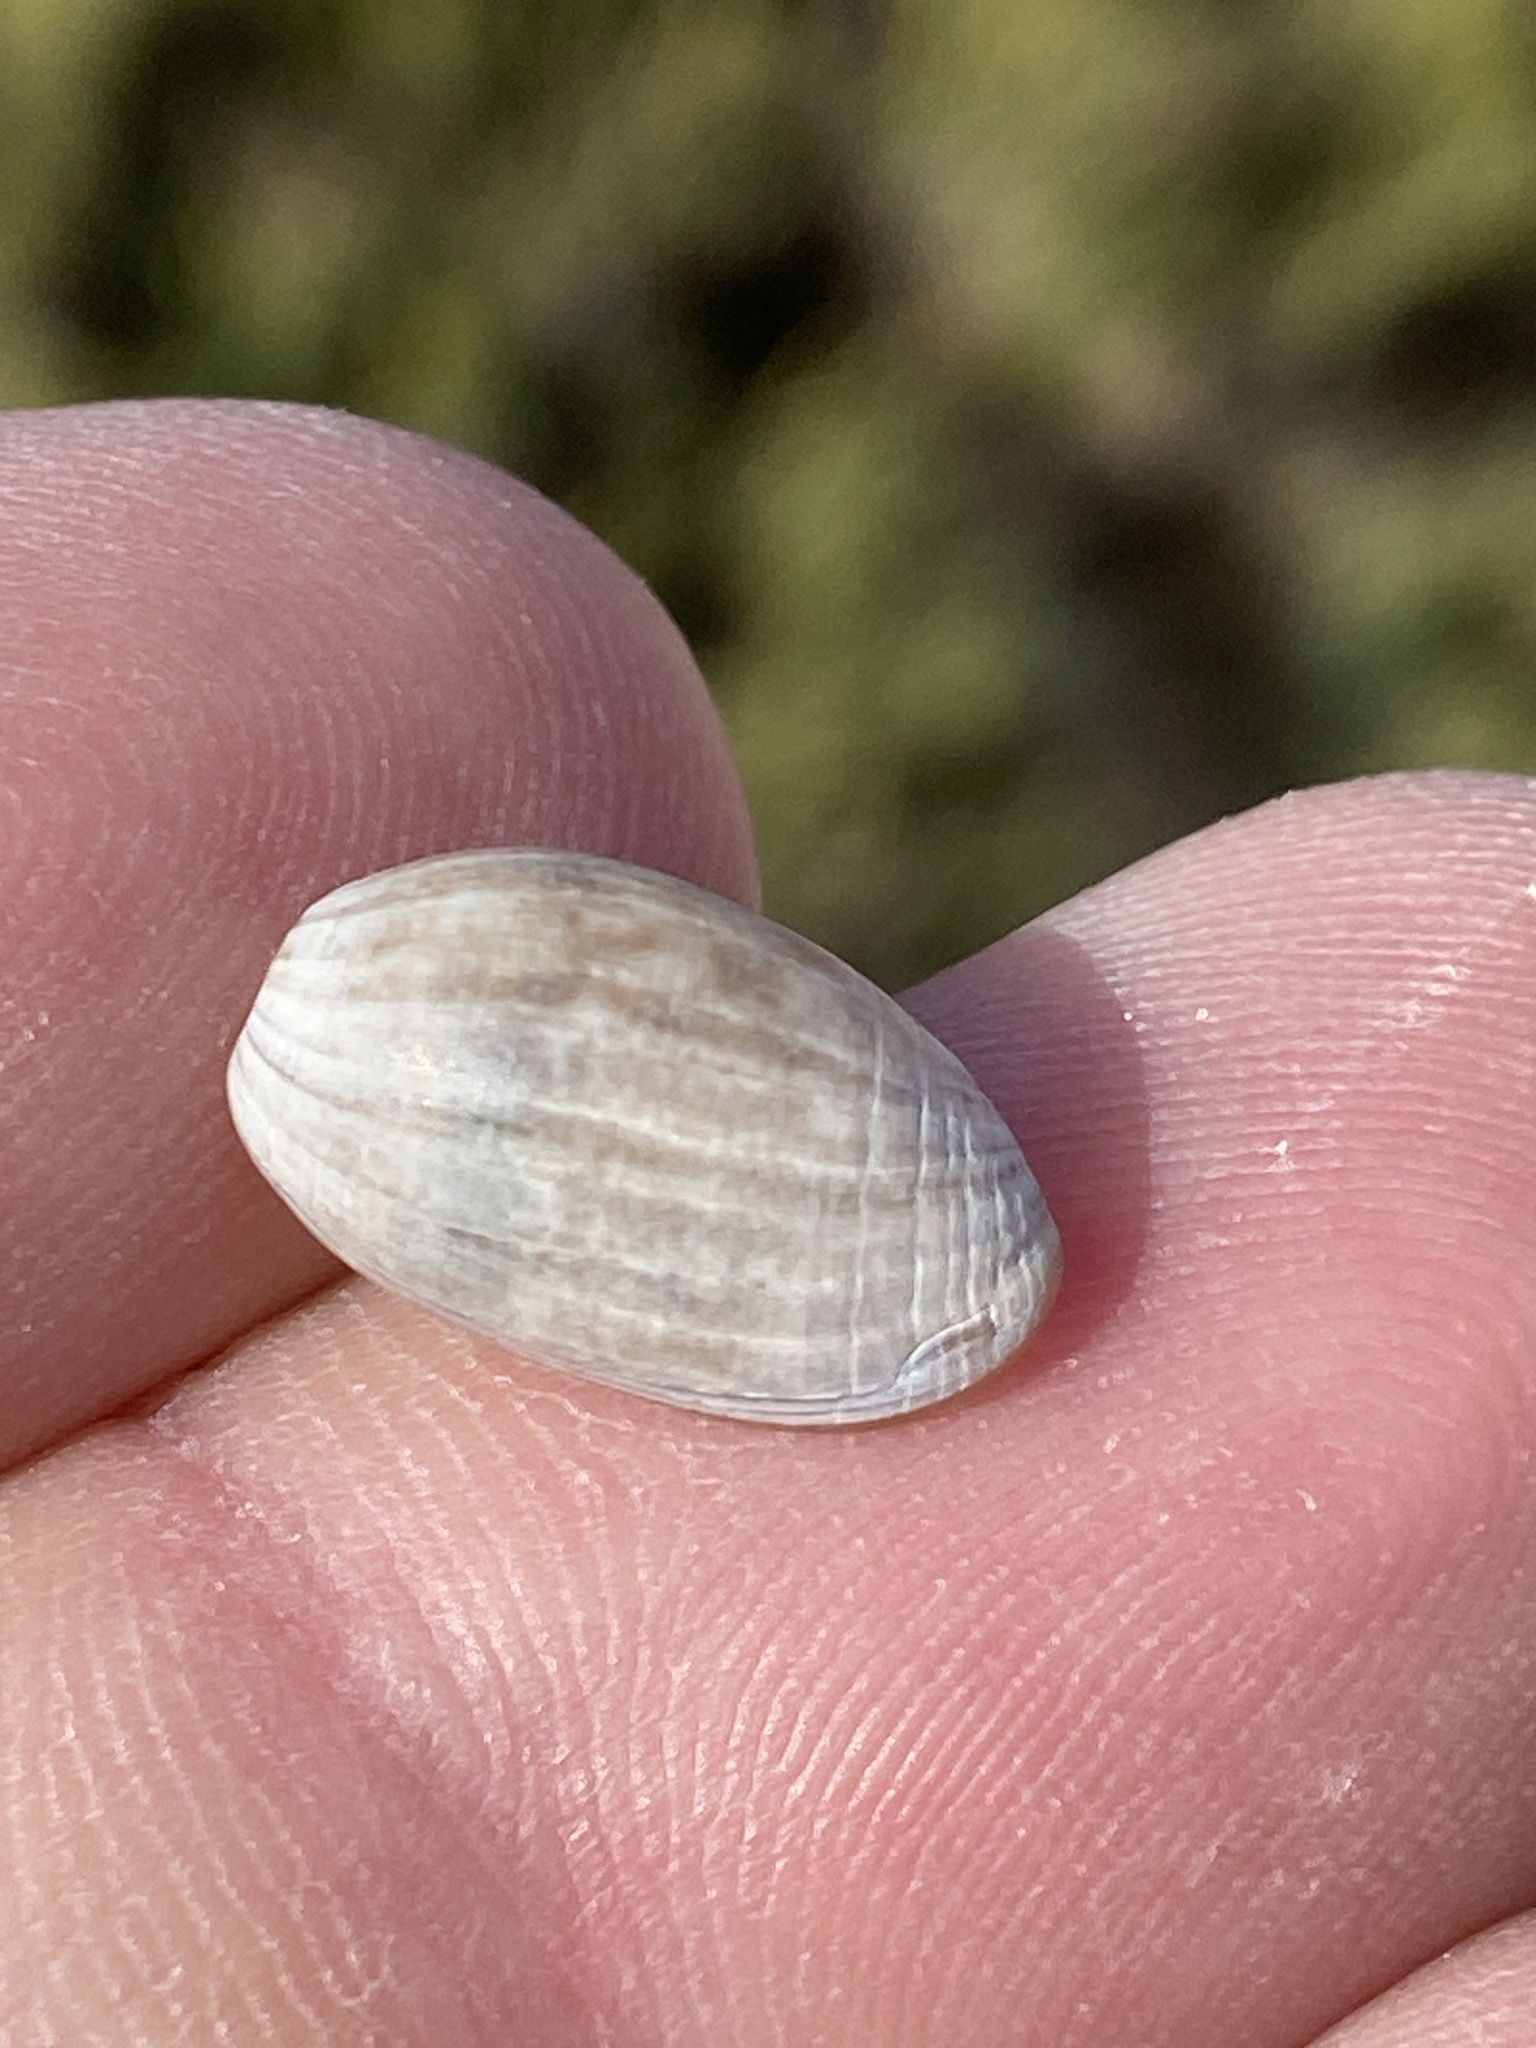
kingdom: Animalia
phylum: Mollusca
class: Gastropoda
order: Cephalaspidea
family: Bullidae
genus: Bulla
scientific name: Bulla striata
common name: Common atlantic bubble
